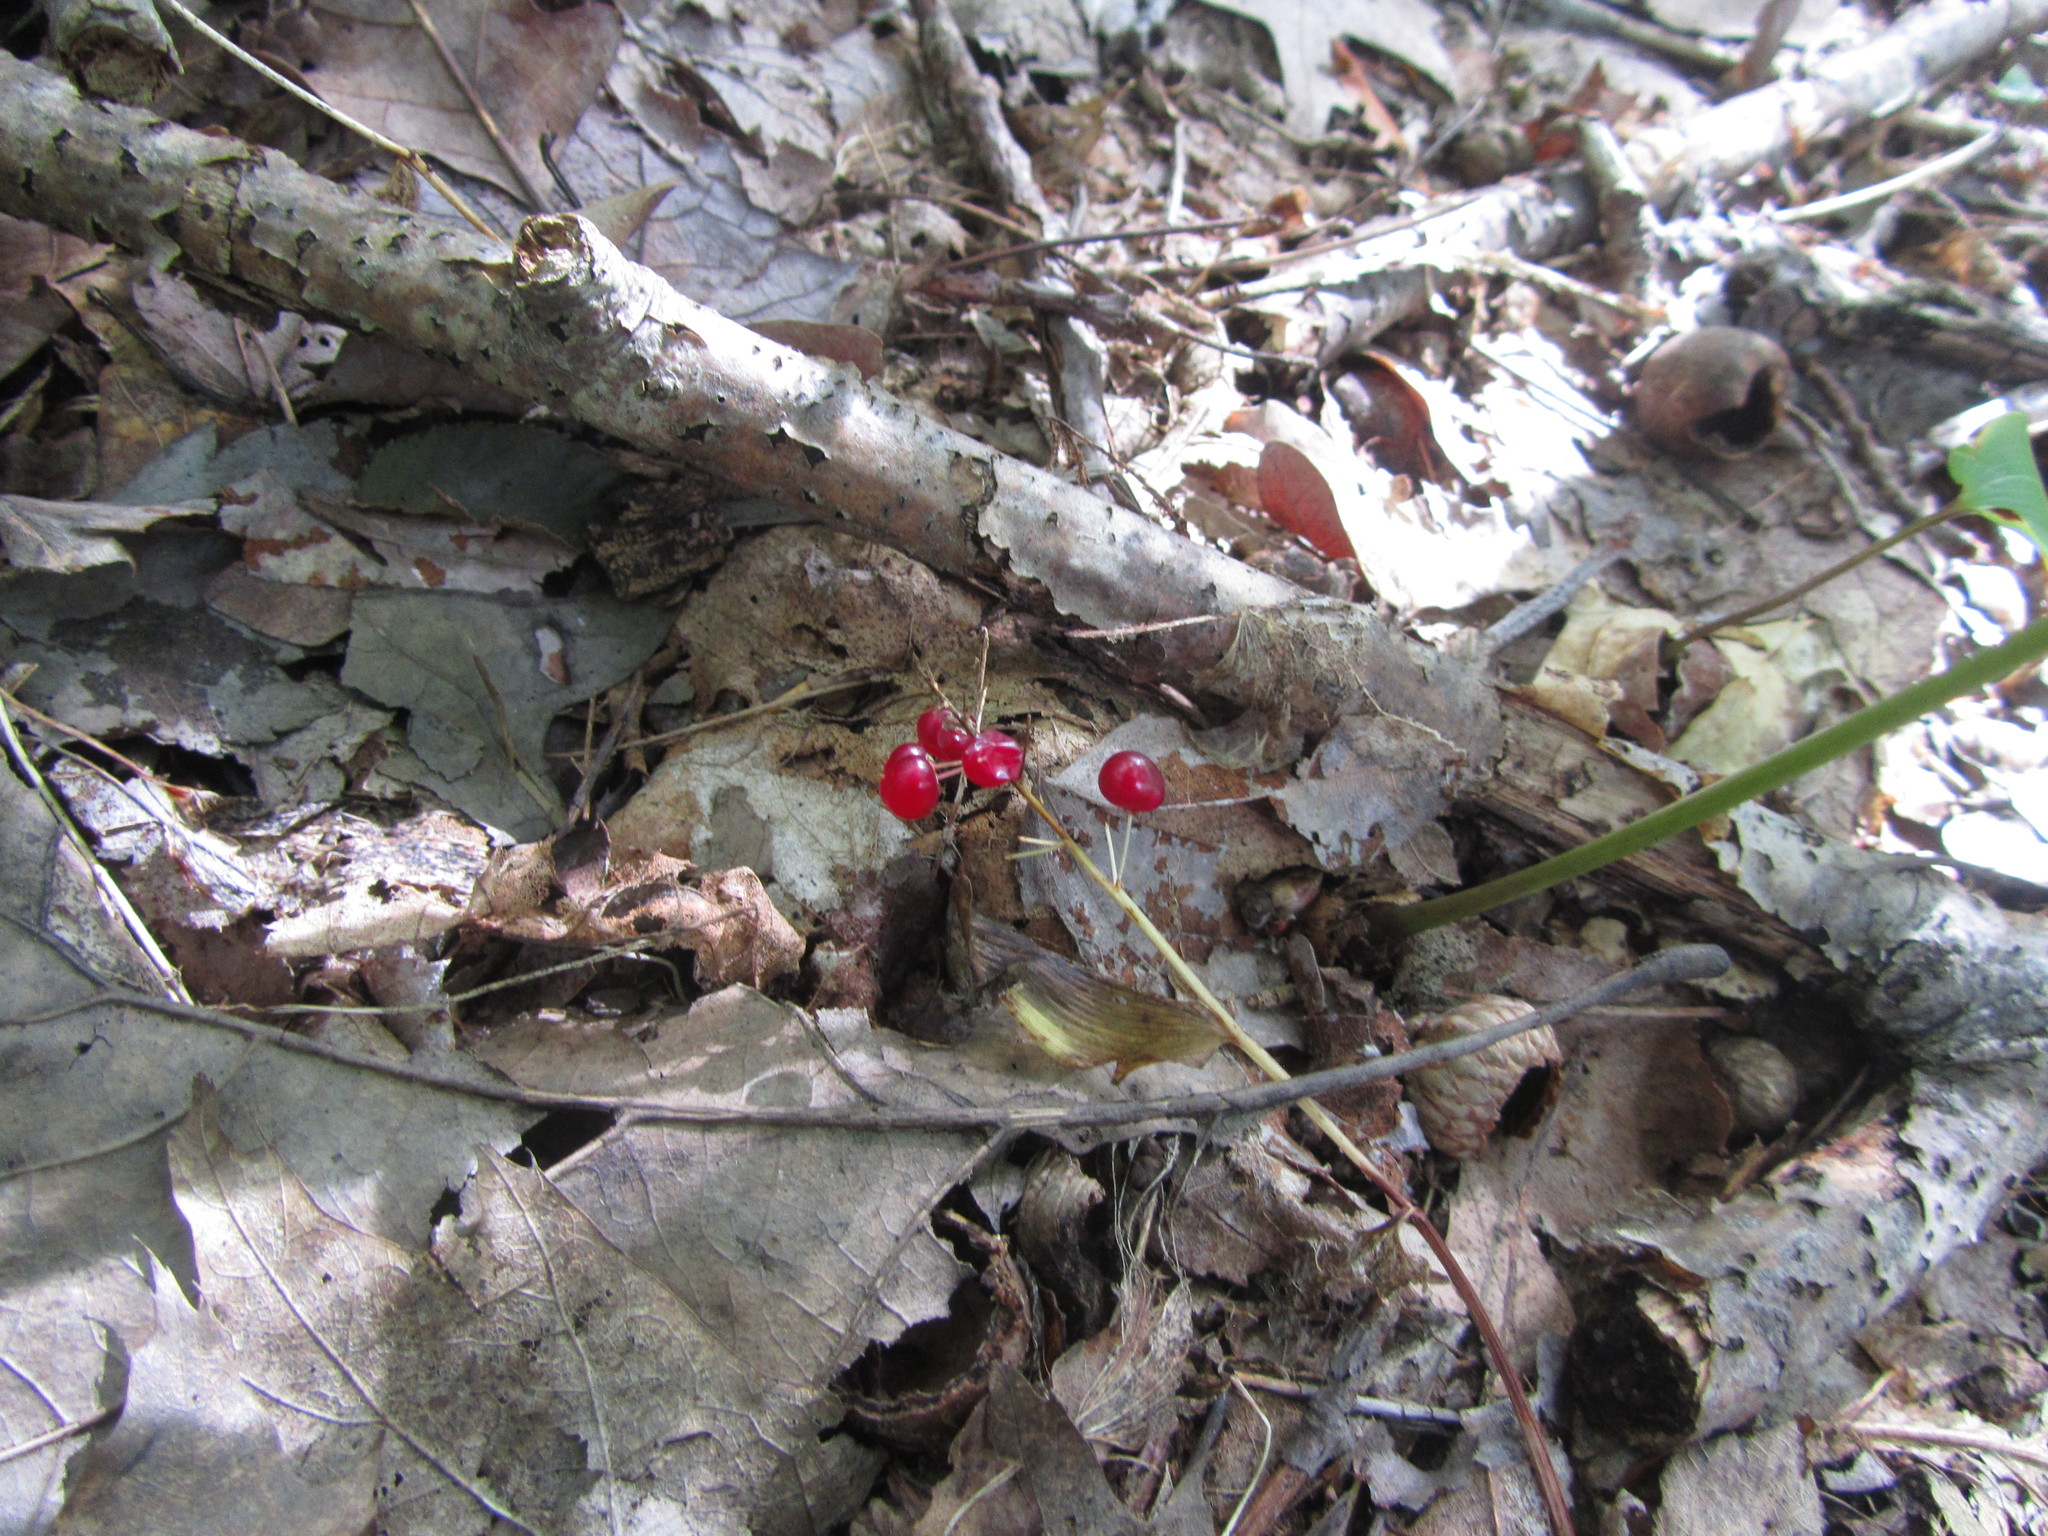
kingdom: Plantae
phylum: Tracheophyta
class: Liliopsida
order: Asparagales
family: Asparagaceae
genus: Maianthemum
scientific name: Maianthemum canadense
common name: False lily-of-the-valley
